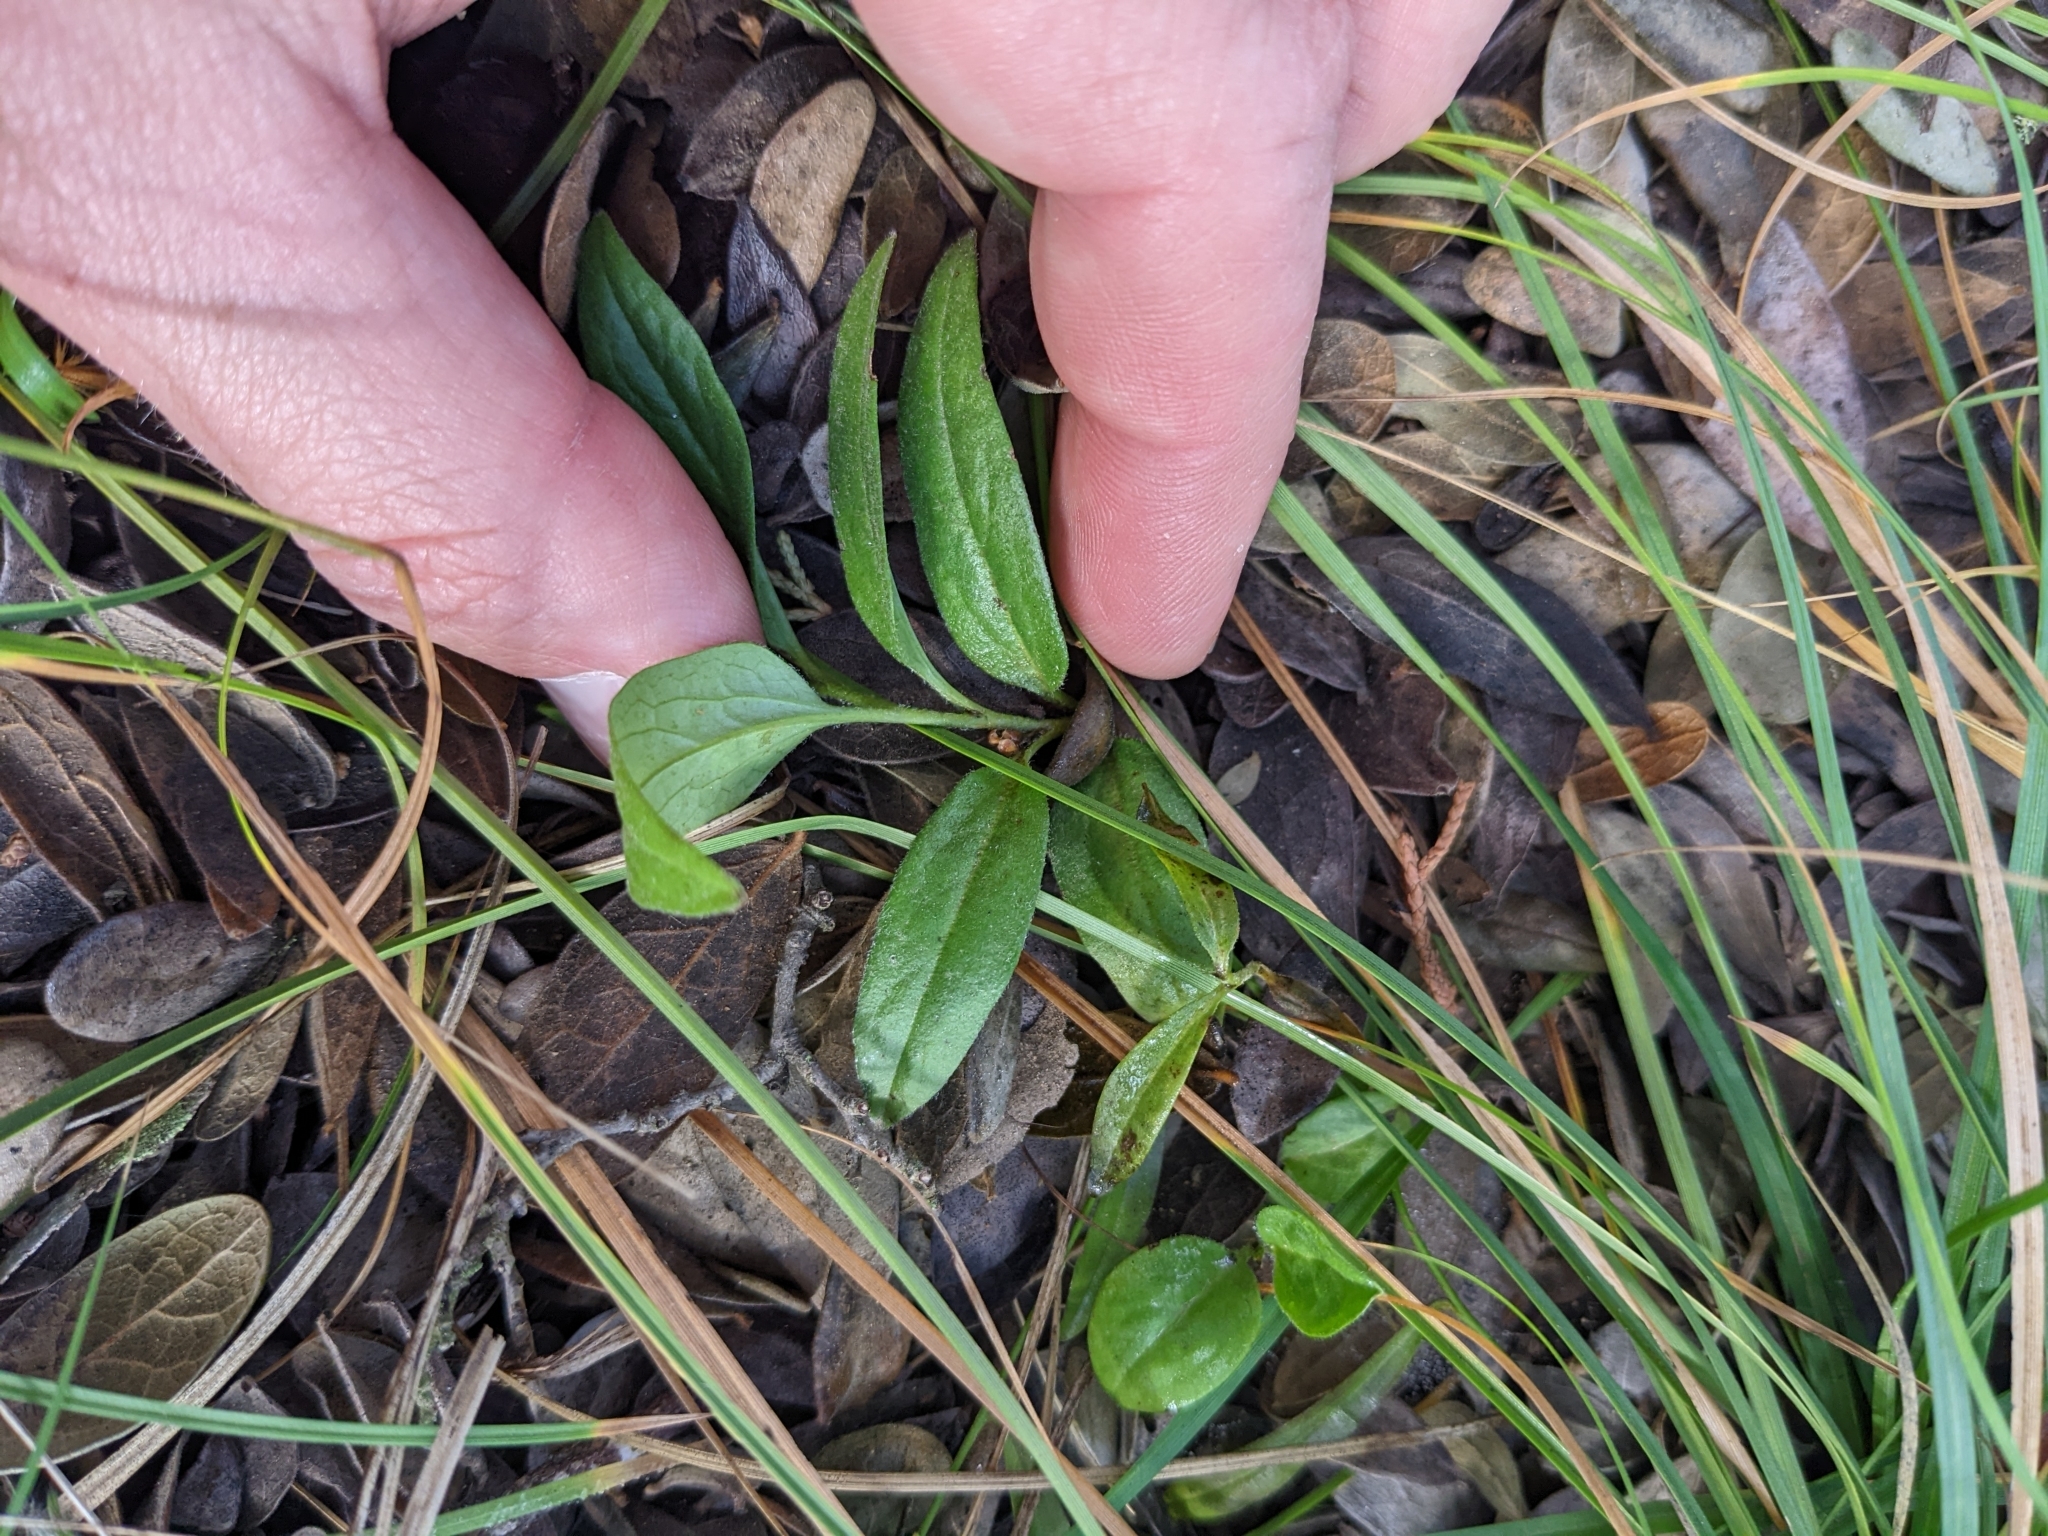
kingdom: Plantae
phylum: Tracheophyta
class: Magnoliopsida
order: Piperales
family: Aristolochiaceae
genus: Aristolochia
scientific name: Aristolochia erecta
